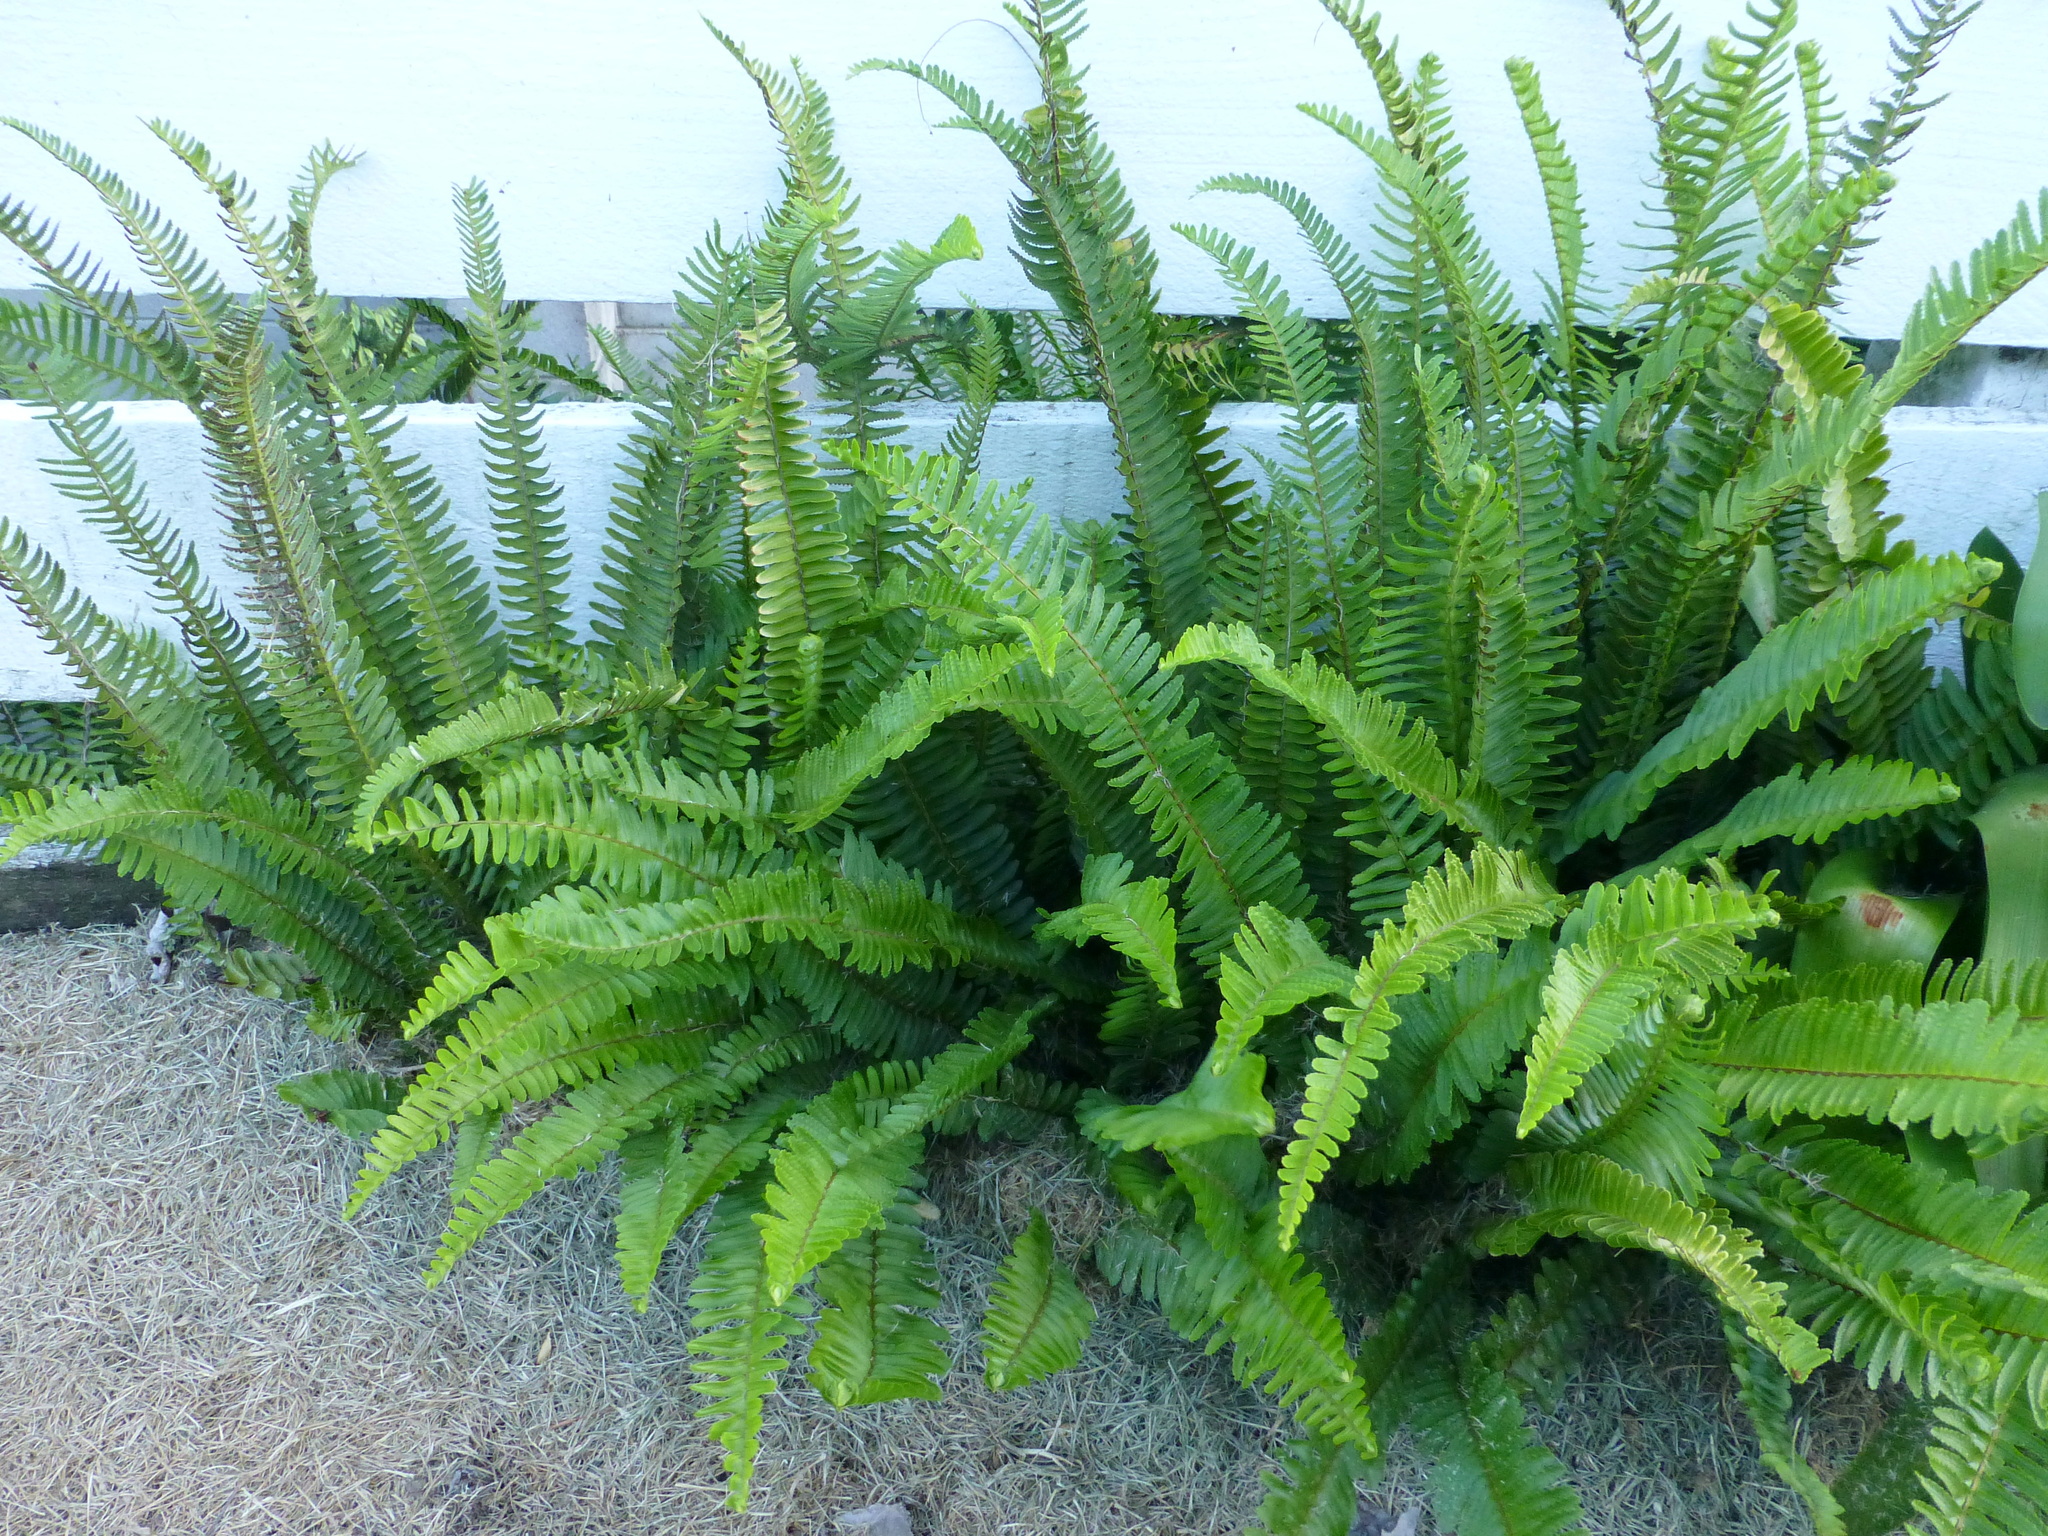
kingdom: Plantae
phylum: Tracheophyta
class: Polypodiopsida
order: Polypodiales
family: Nephrolepidaceae
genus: Nephrolepis
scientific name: Nephrolepis cordifolia
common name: Narrow swordfern
